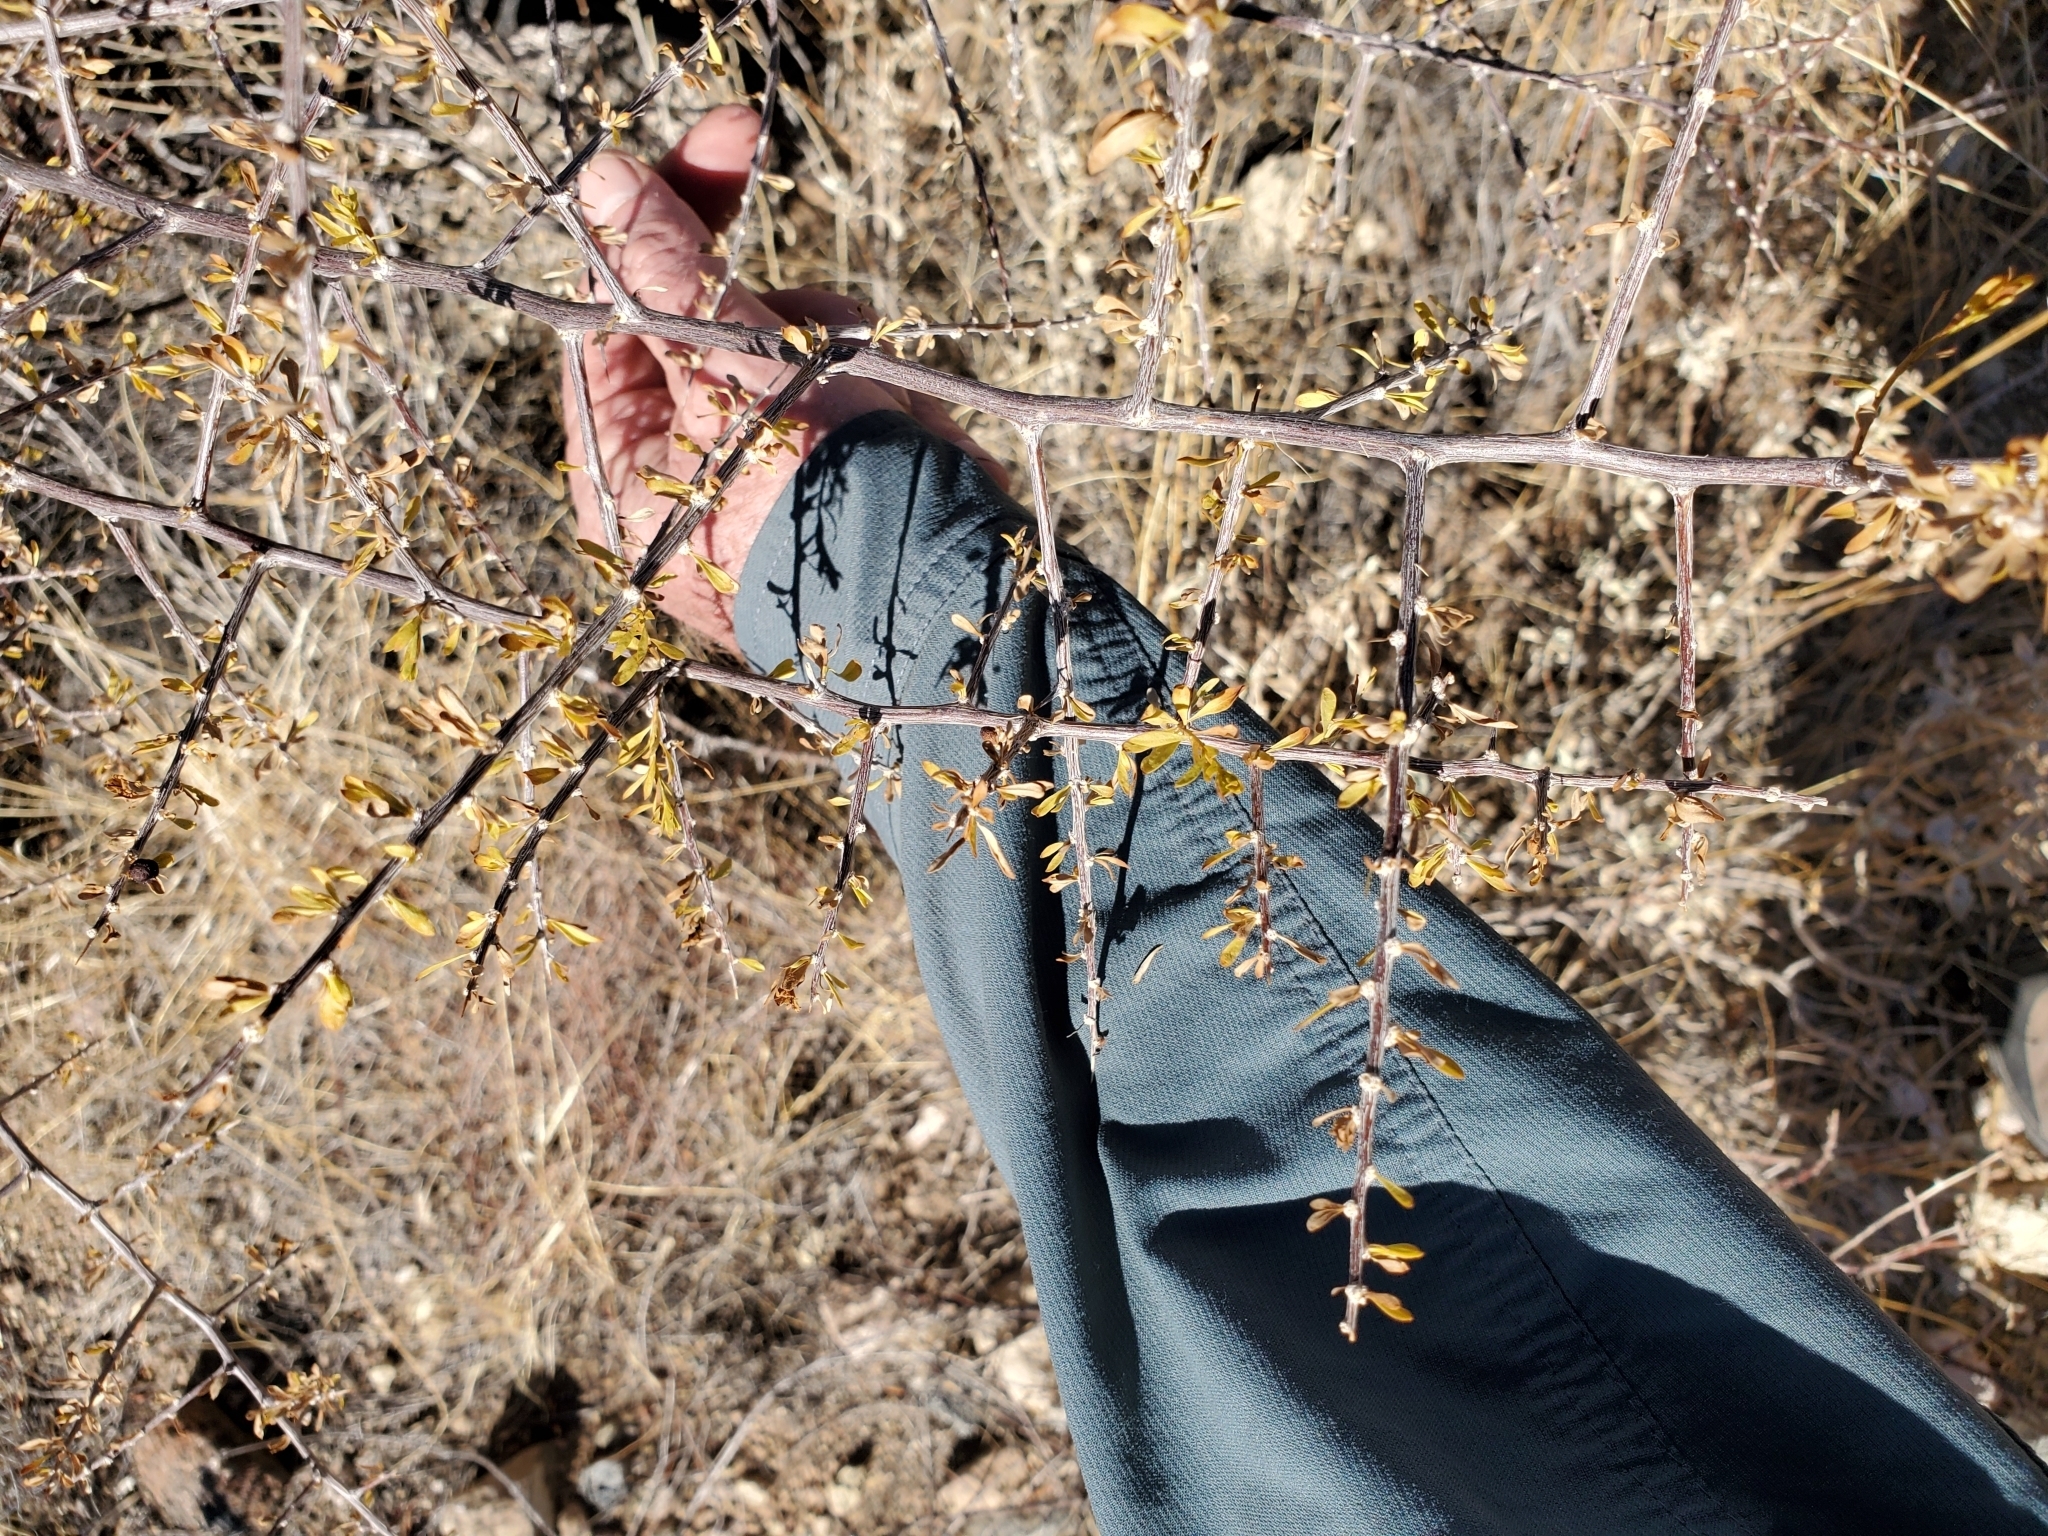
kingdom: Plantae
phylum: Tracheophyta
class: Magnoliopsida
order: Solanales
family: Solanaceae
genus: Lycium
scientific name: Lycium andersonii
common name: Water-jacket
